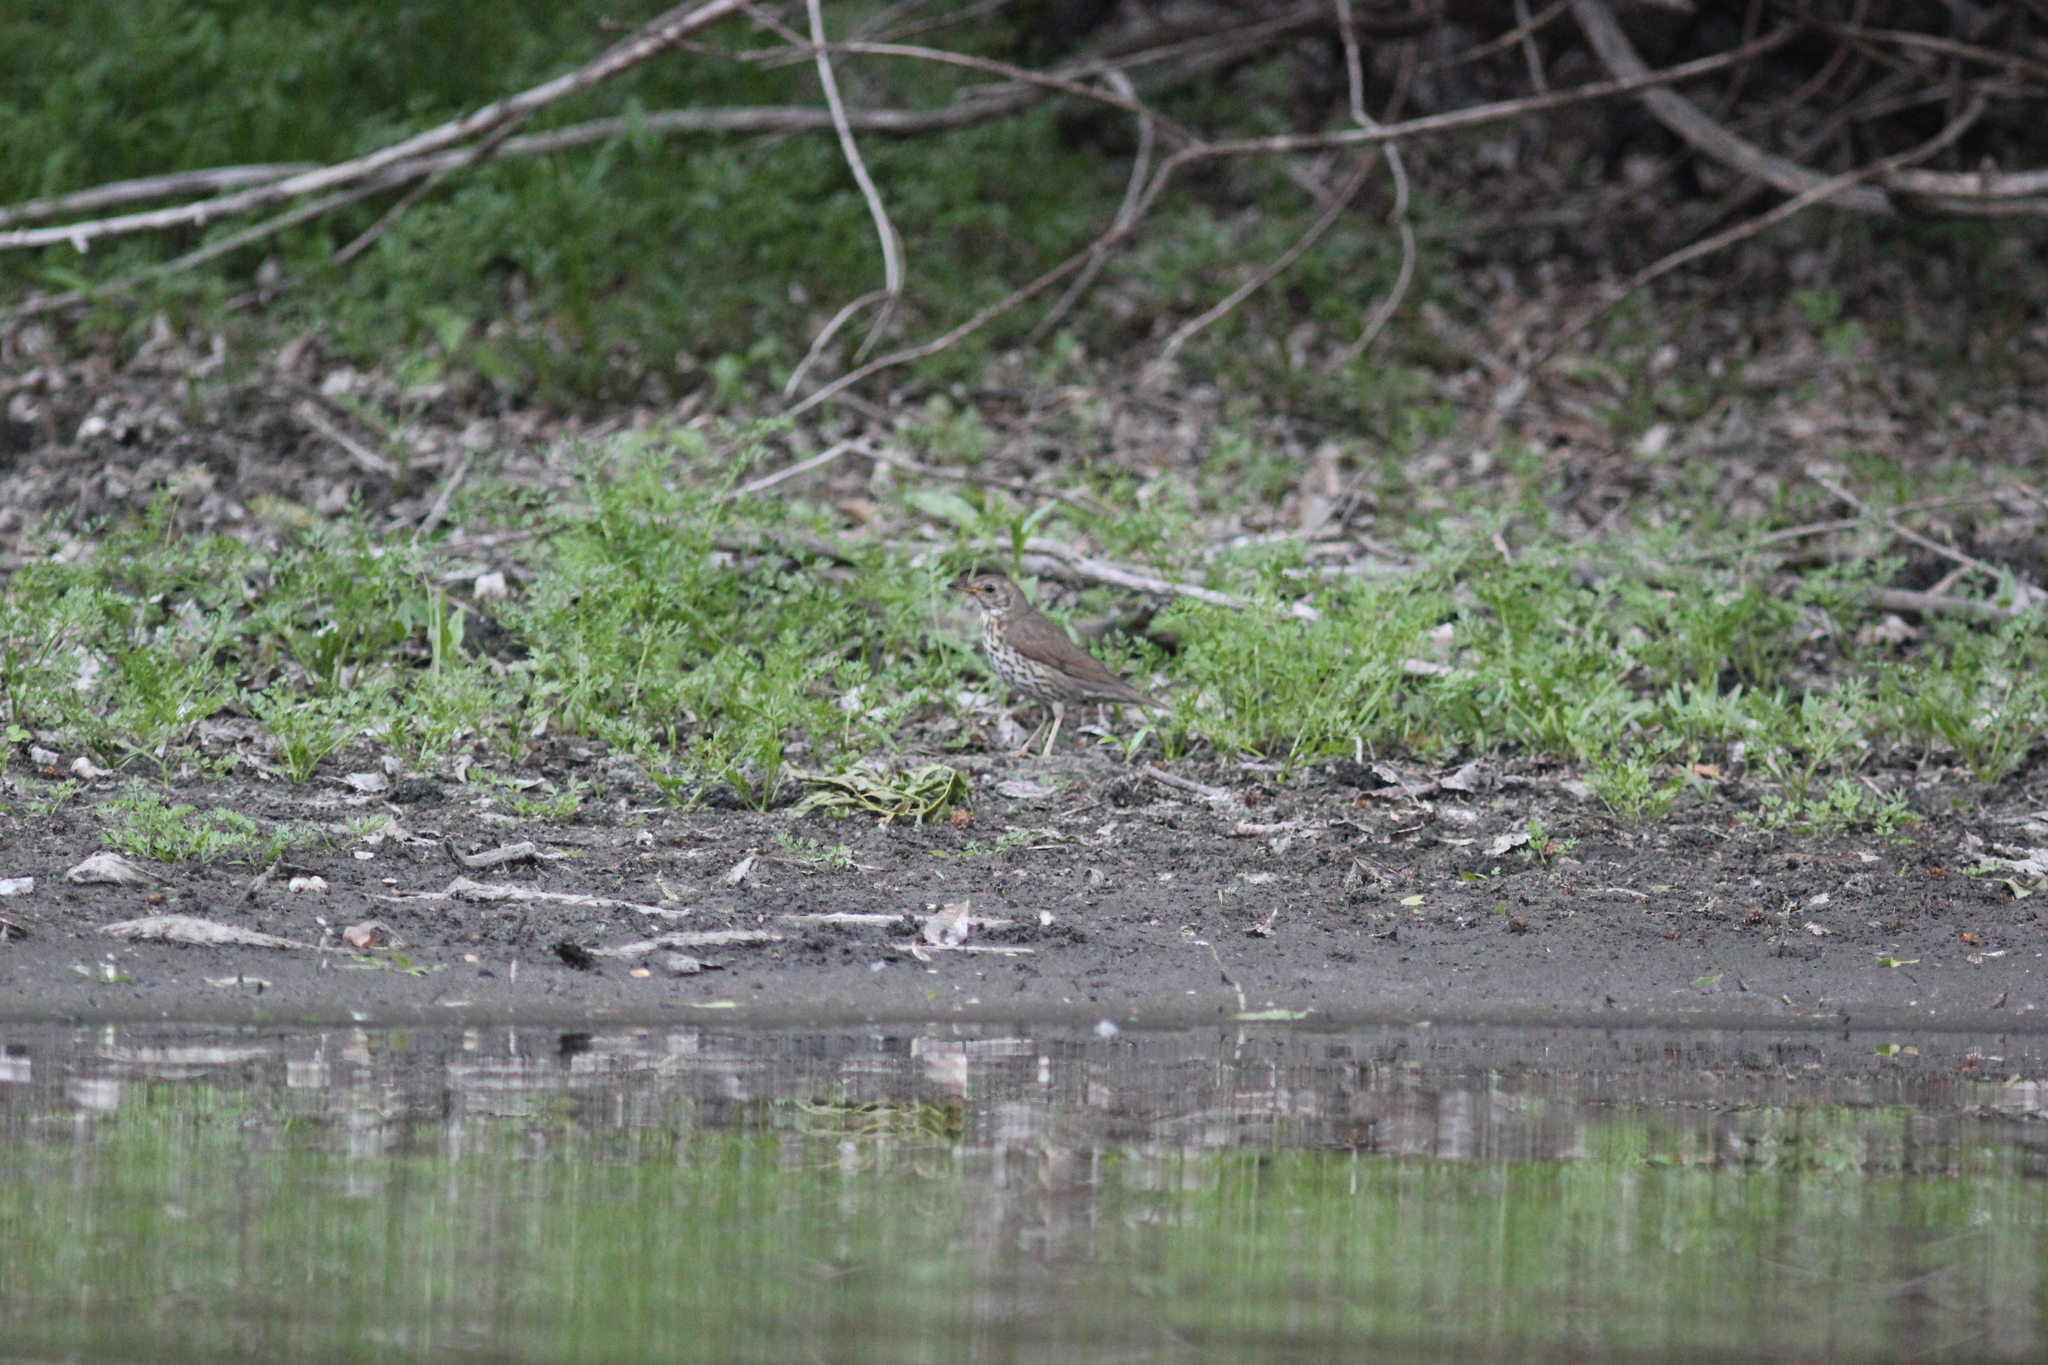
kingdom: Animalia
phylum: Chordata
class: Aves
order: Passeriformes
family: Turdidae
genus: Turdus
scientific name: Turdus philomelos
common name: Song thrush
